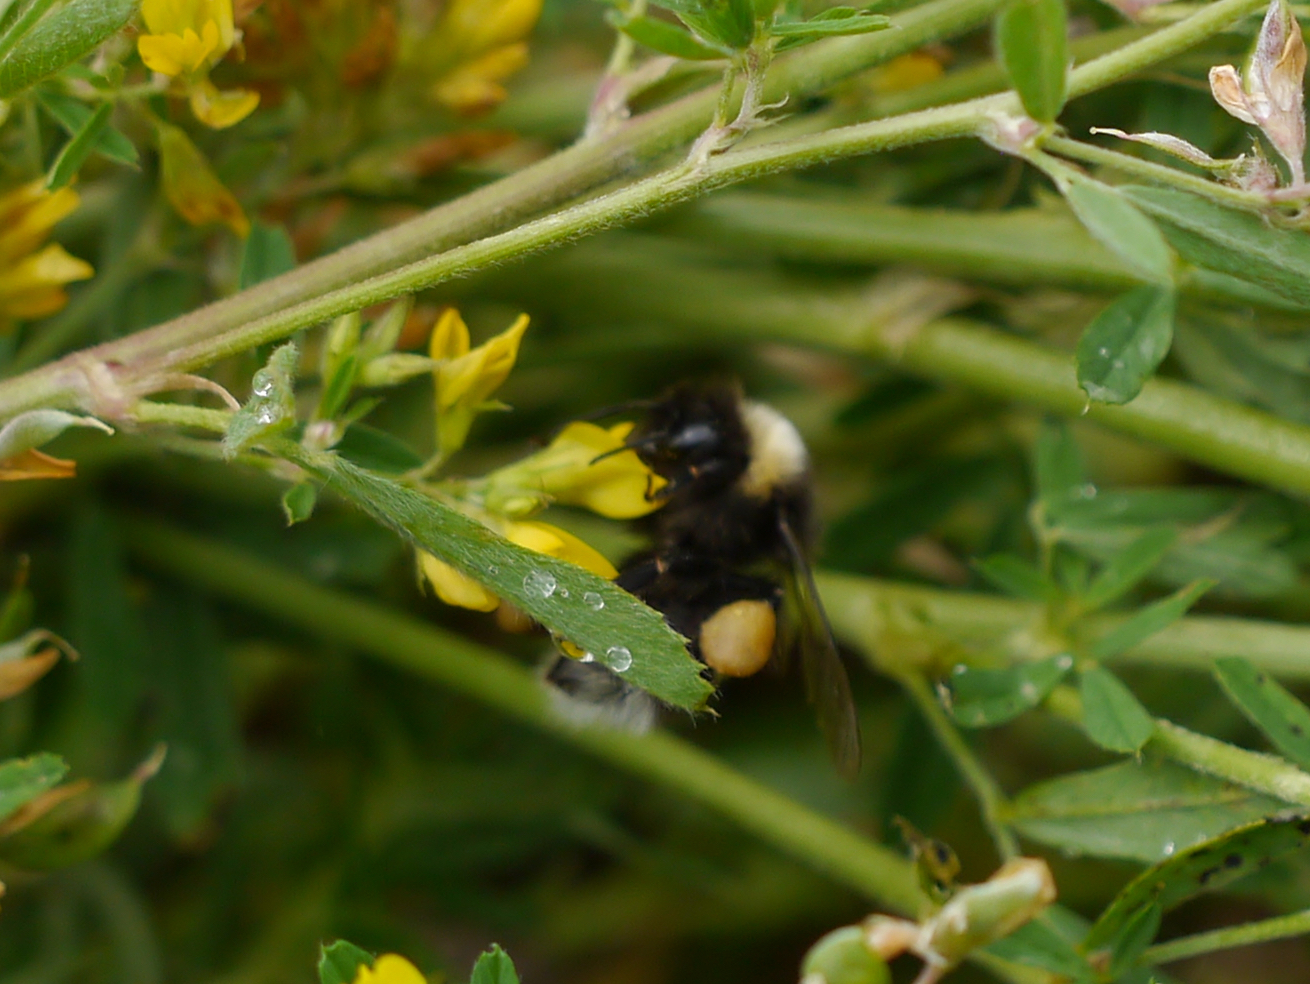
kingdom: Animalia
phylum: Arthropoda
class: Insecta
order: Hymenoptera
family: Apidae
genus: Bombus
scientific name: Bombus cryptarum
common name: Cryptic bumblebee
